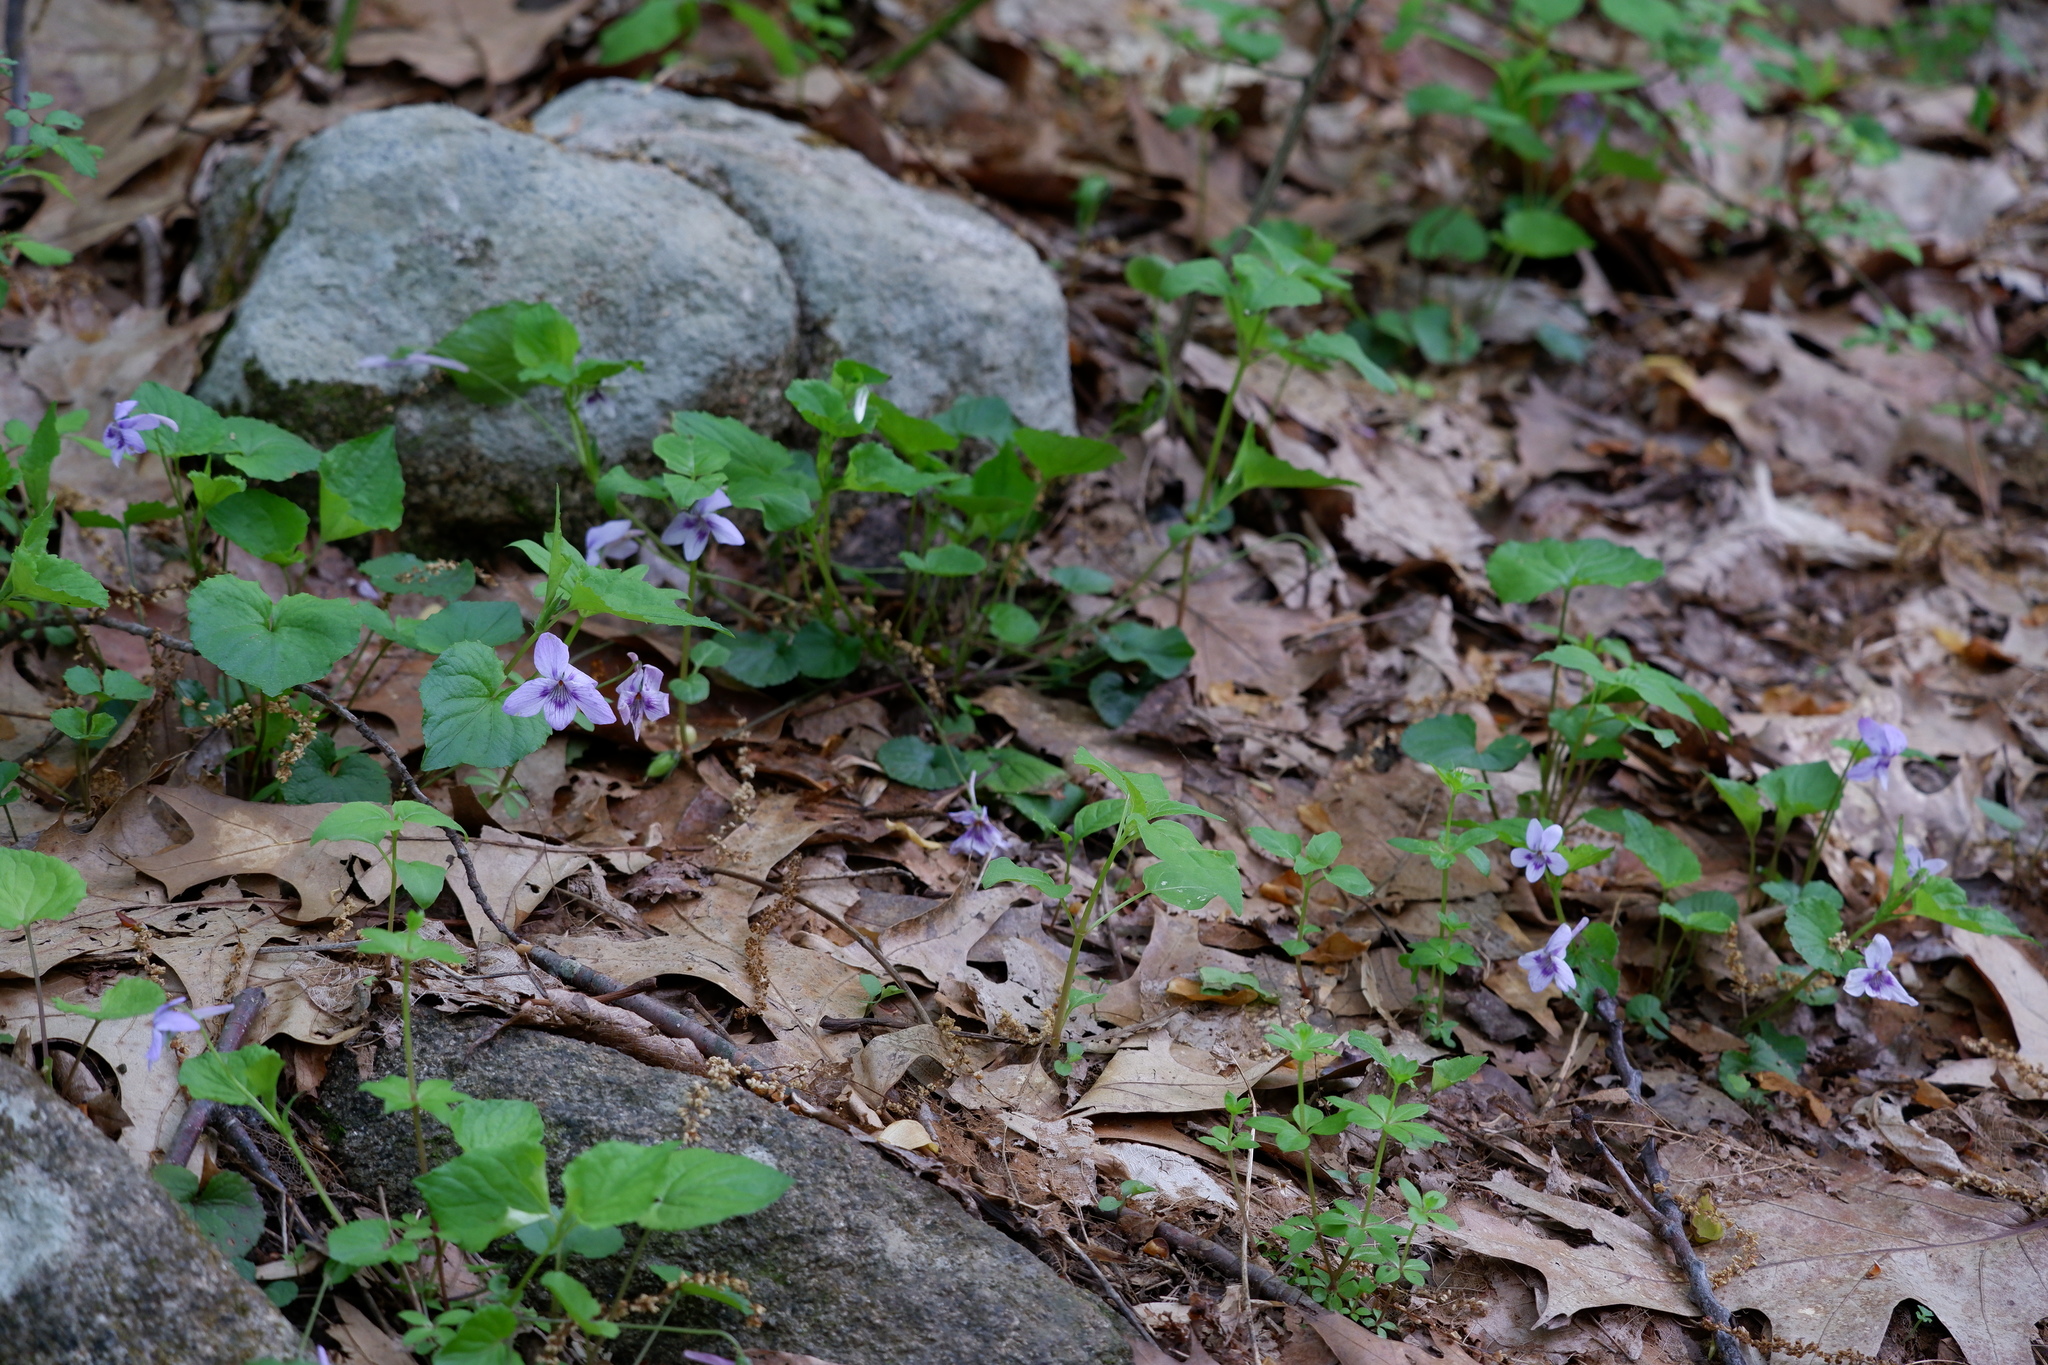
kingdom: Plantae
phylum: Tracheophyta
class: Magnoliopsida
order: Malpighiales
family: Violaceae
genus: Viola
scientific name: Viola rostrata
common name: Long-spur violet
